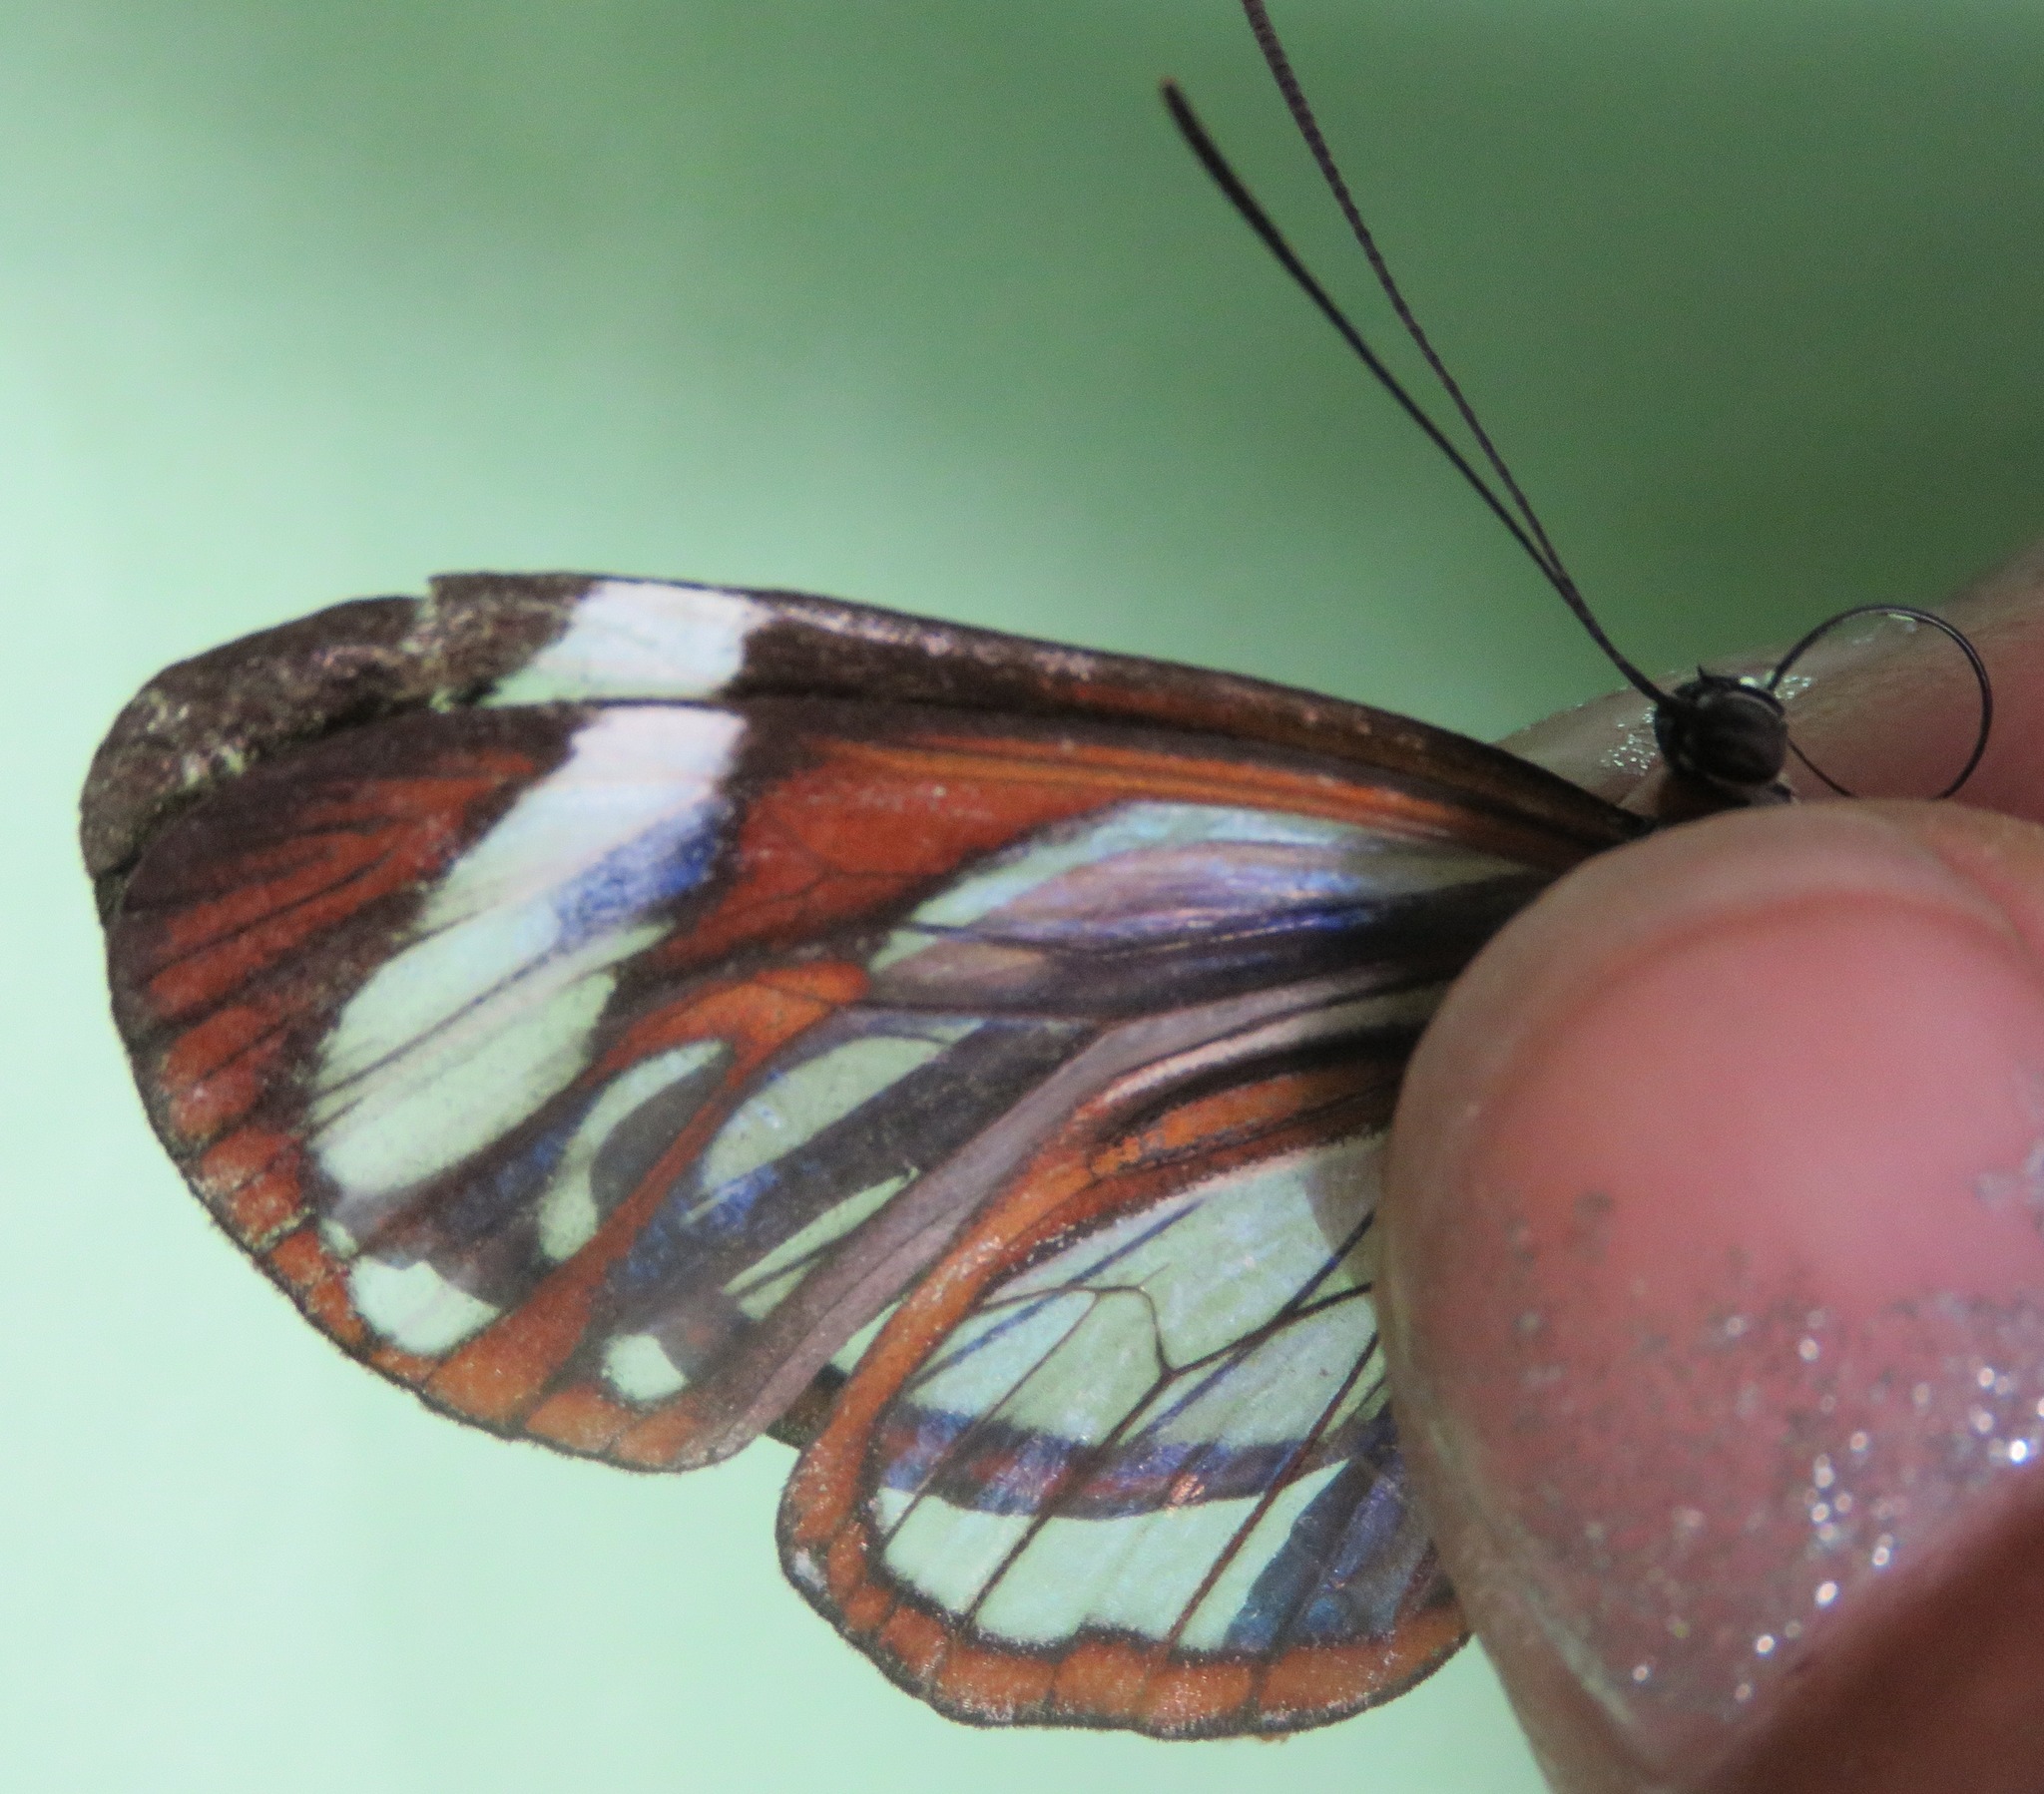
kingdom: Animalia
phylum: Arthropoda
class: Insecta
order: Lepidoptera
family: Nymphalidae
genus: Ithomia
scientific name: Ithomia patilla
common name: Patilla clearwing
